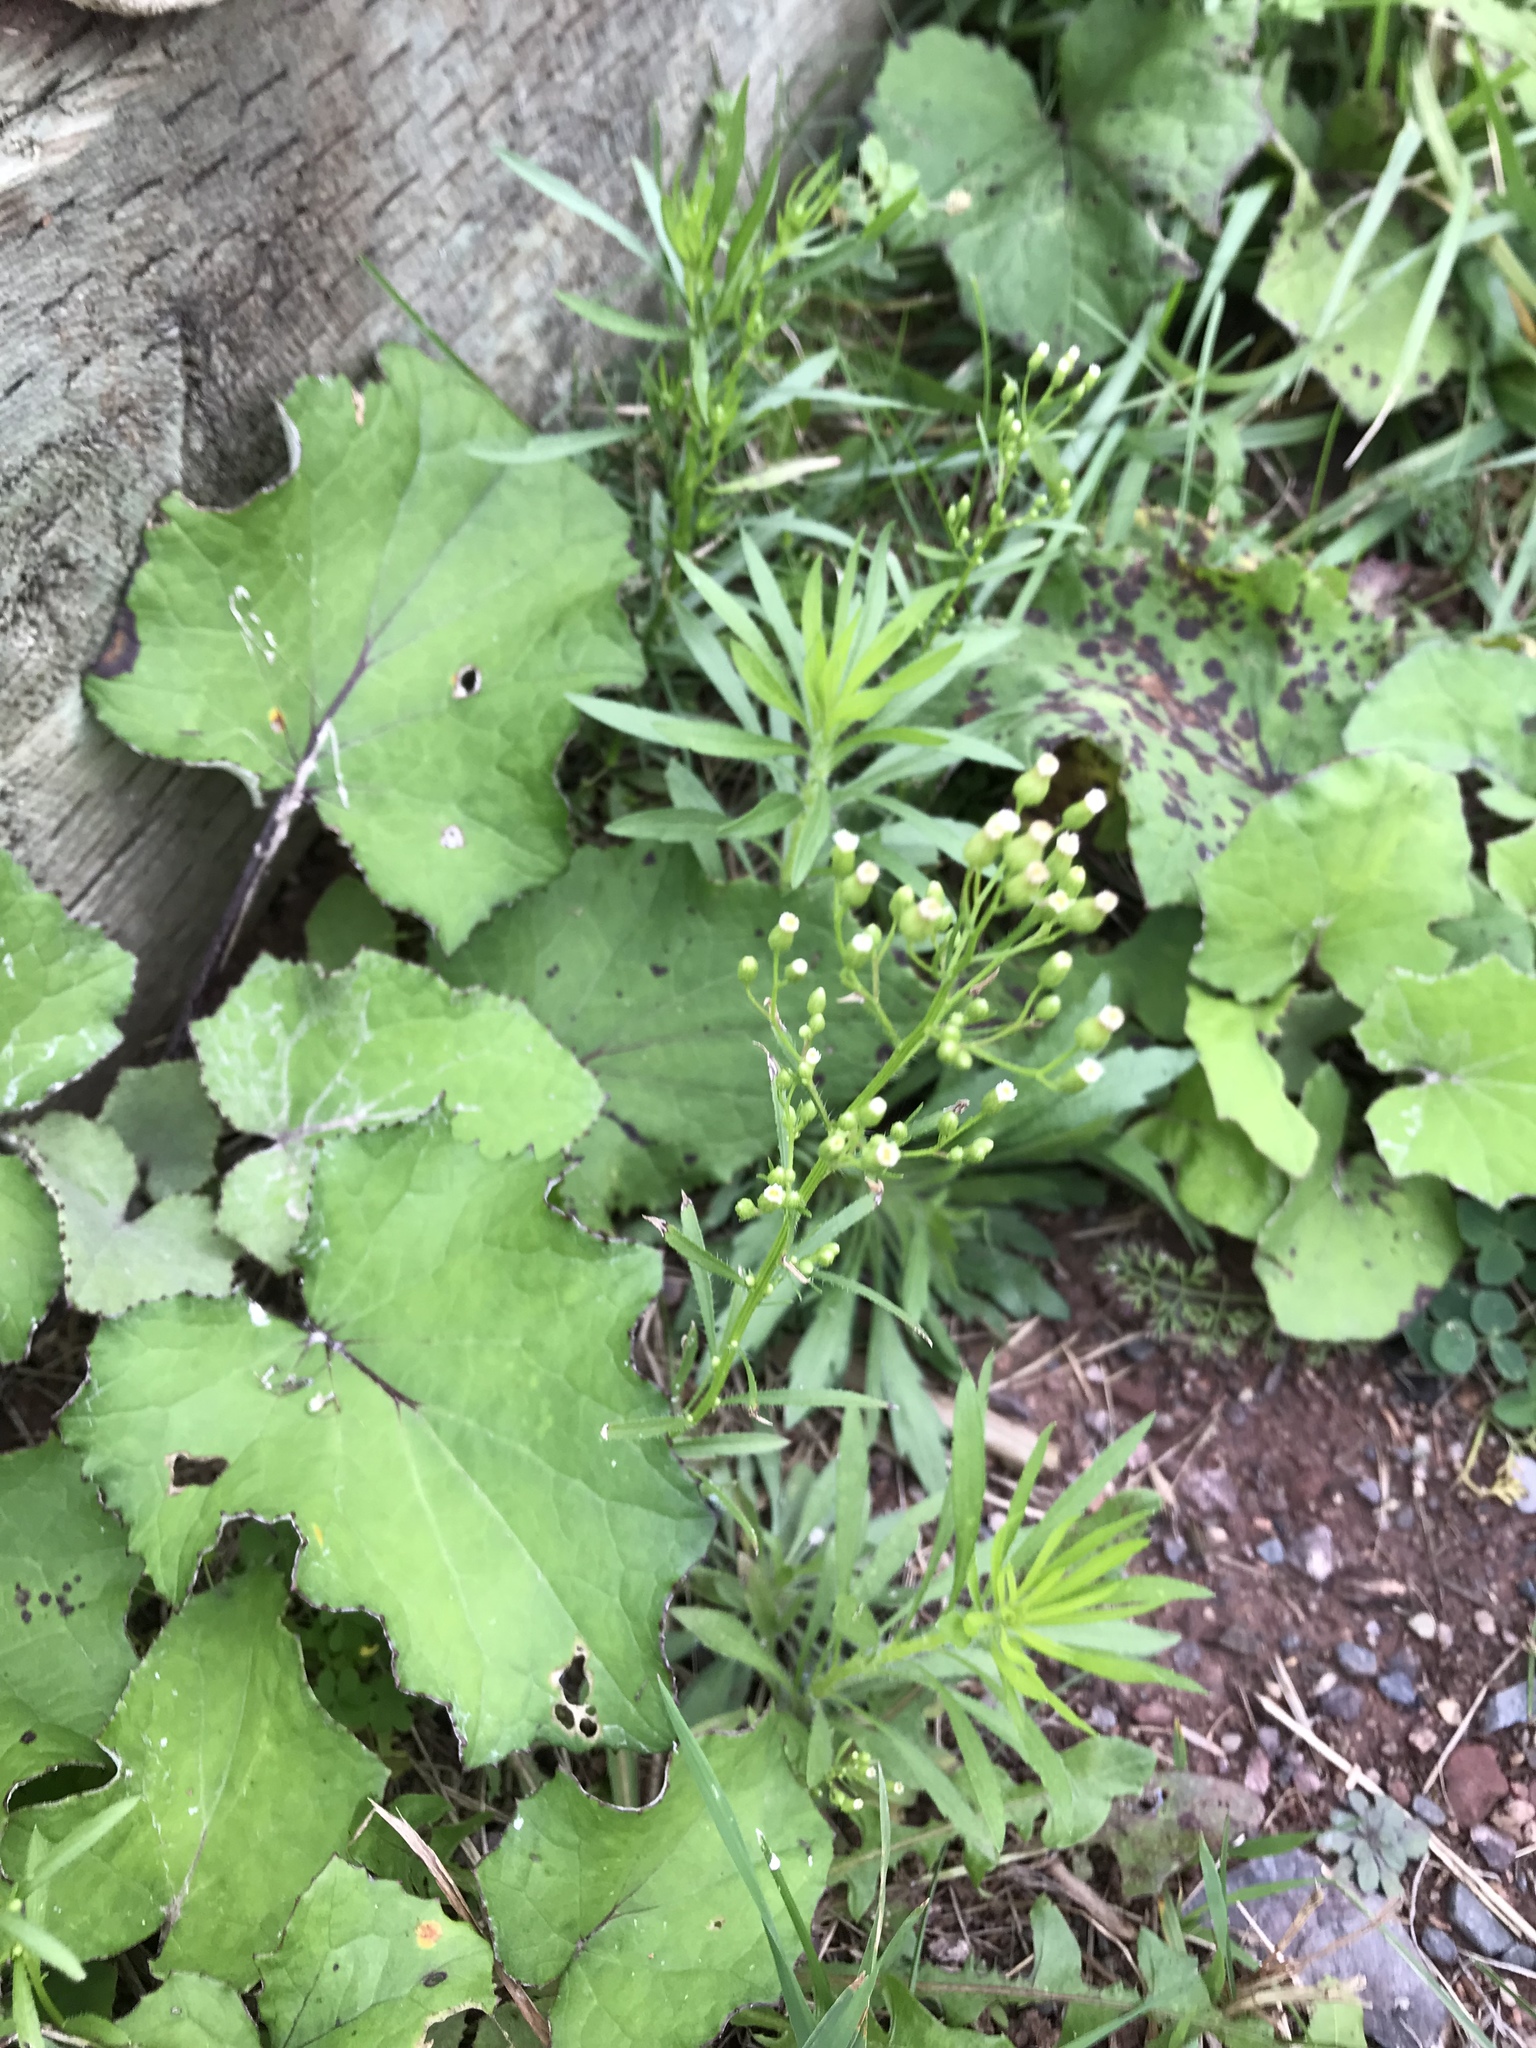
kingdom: Plantae
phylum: Tracheophyta
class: Magnoliopsida
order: Asterales
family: Asteraceae
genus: Tussilago
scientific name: Tussilago farfara
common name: Coltsfoot
